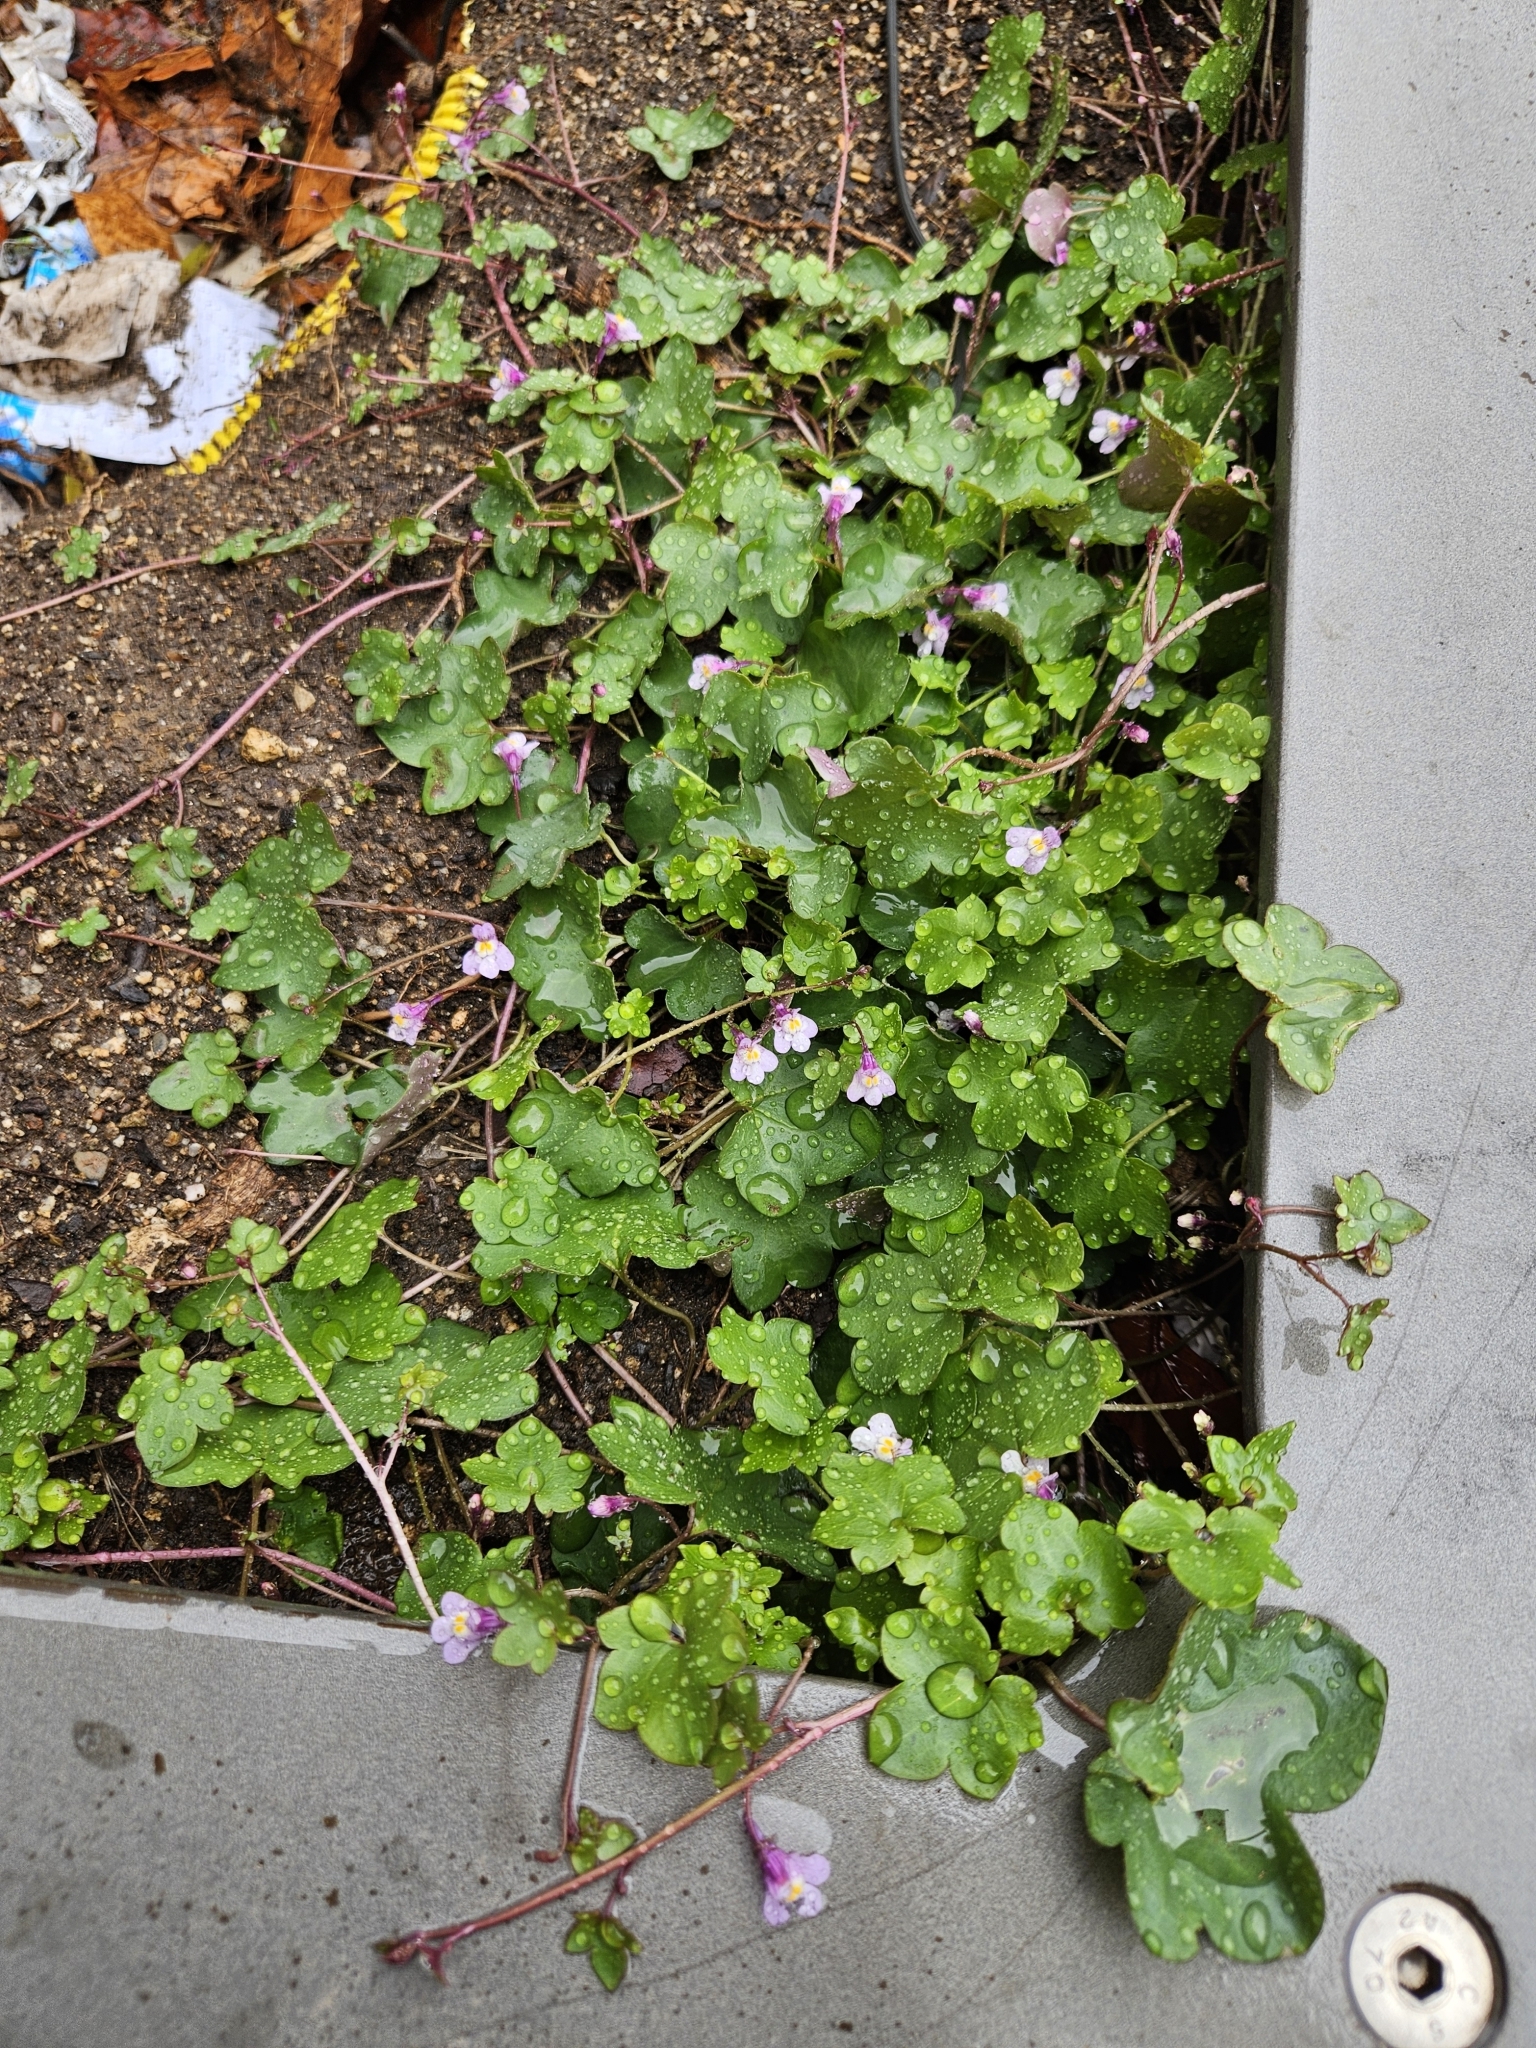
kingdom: Plantae
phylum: Tracheophyta
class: Magnoliopsida
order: Lamiales
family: Plantaginaceae
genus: Cymbalaria
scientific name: Cymbalaria muralis
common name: Ivy-leaved toadflax
